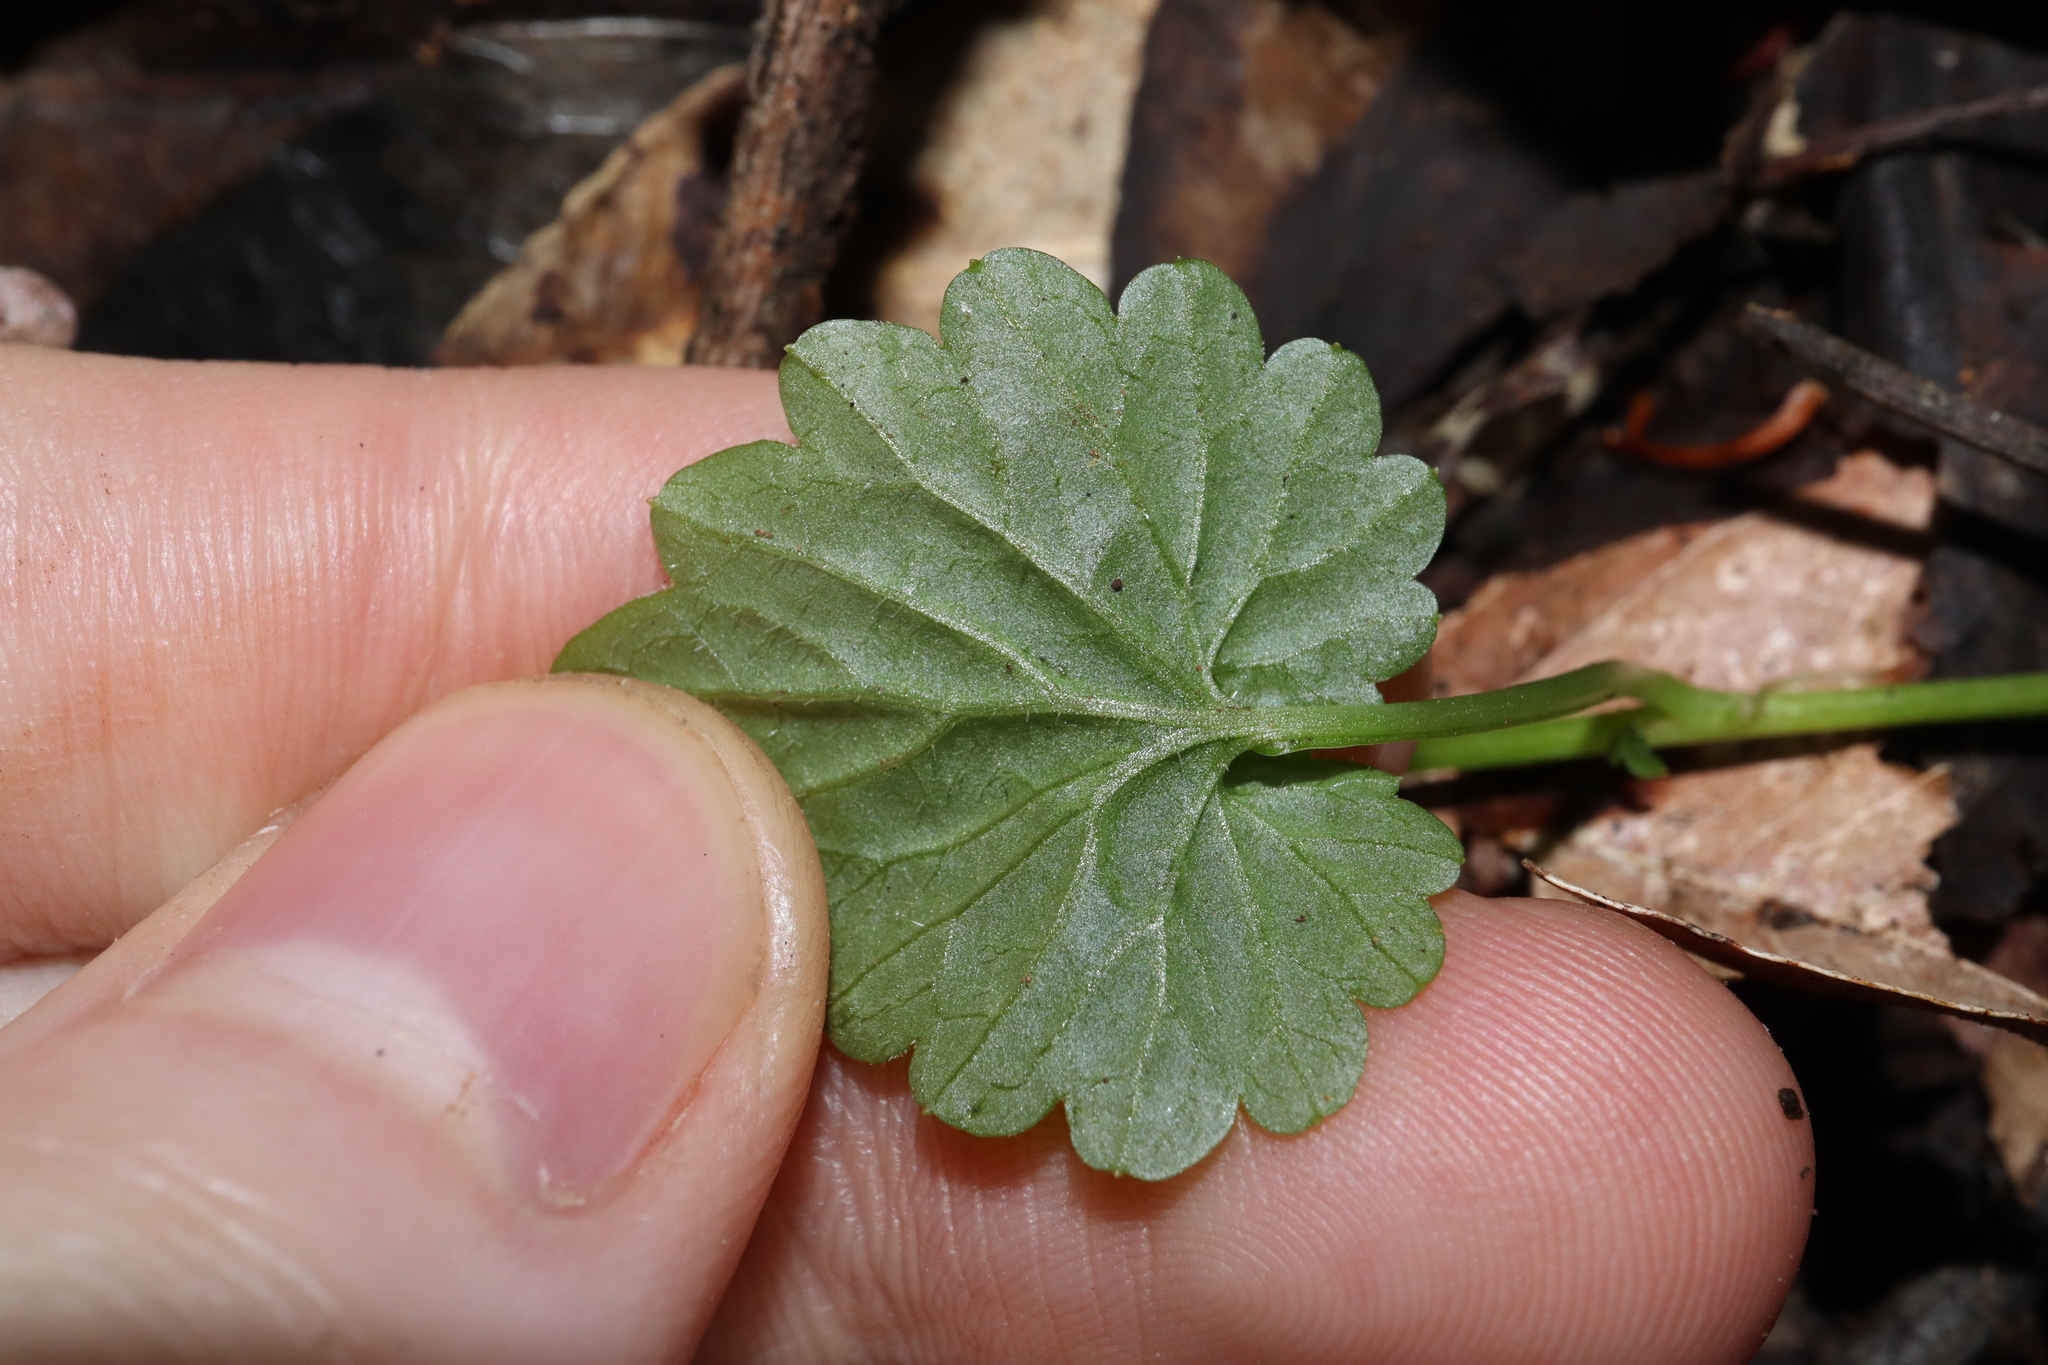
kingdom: Plantae
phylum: Tracheophyta
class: Magnoliopsida
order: Asterales
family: Campanulaceae
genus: Lobelia
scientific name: Lobelia trigonocaulis
